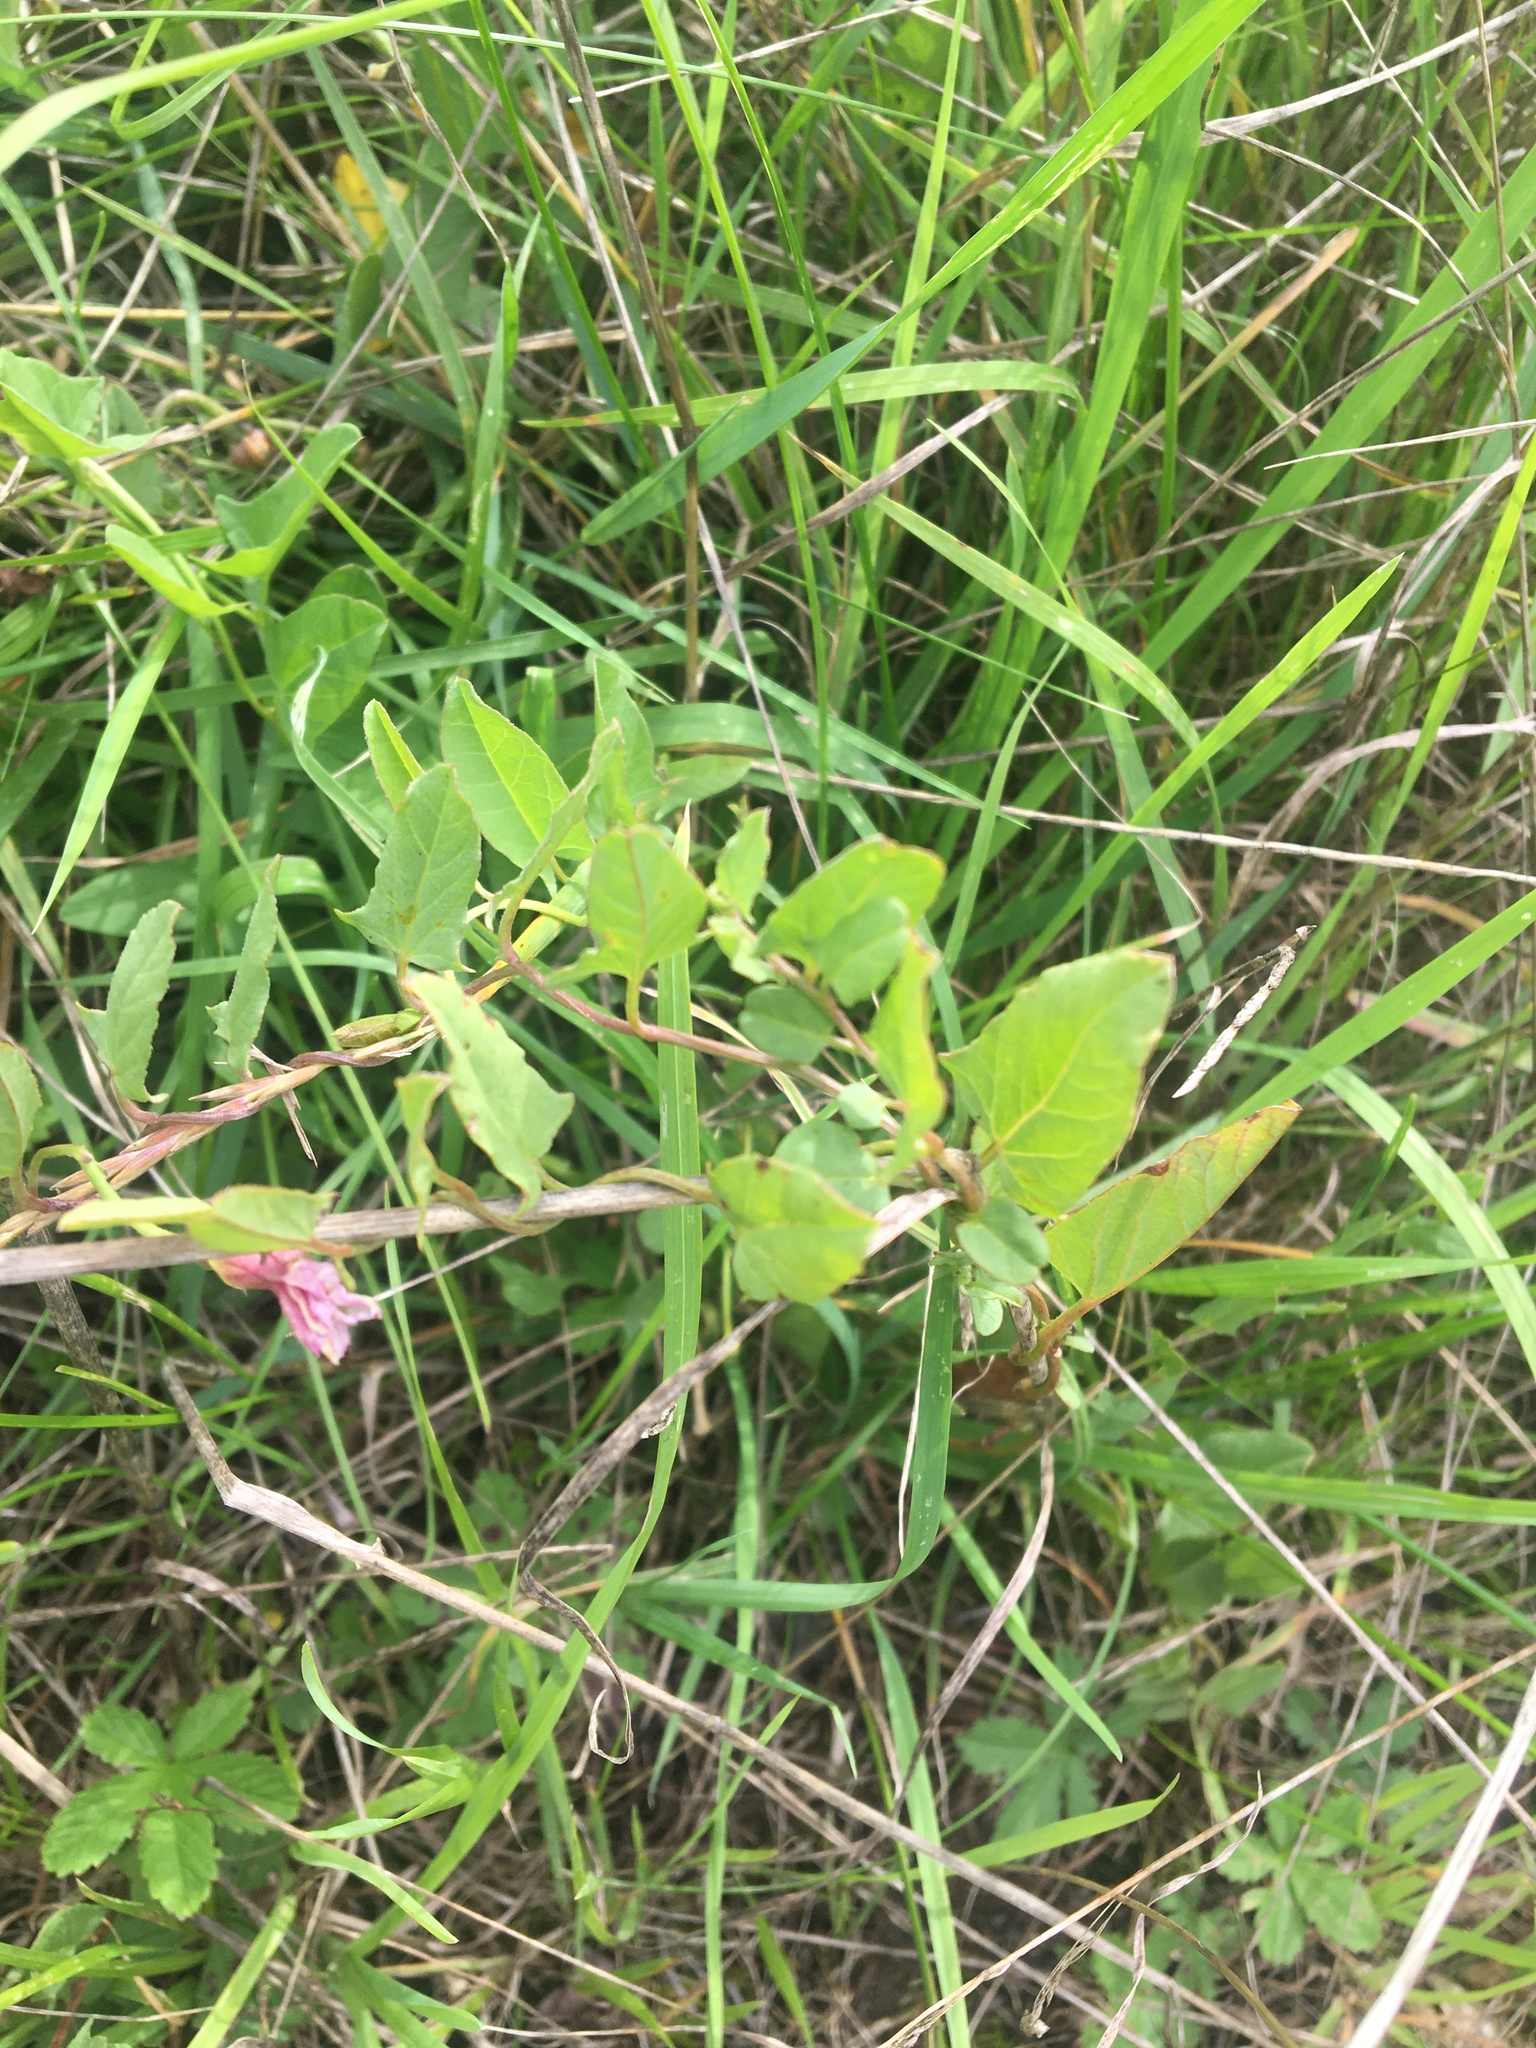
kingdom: Plantae
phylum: Tracheophyta
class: Magnoliopsida
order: Solanales
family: Convolvulaceae
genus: Convolvulus
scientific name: Convolvulus arvensis
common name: Field bindweed
